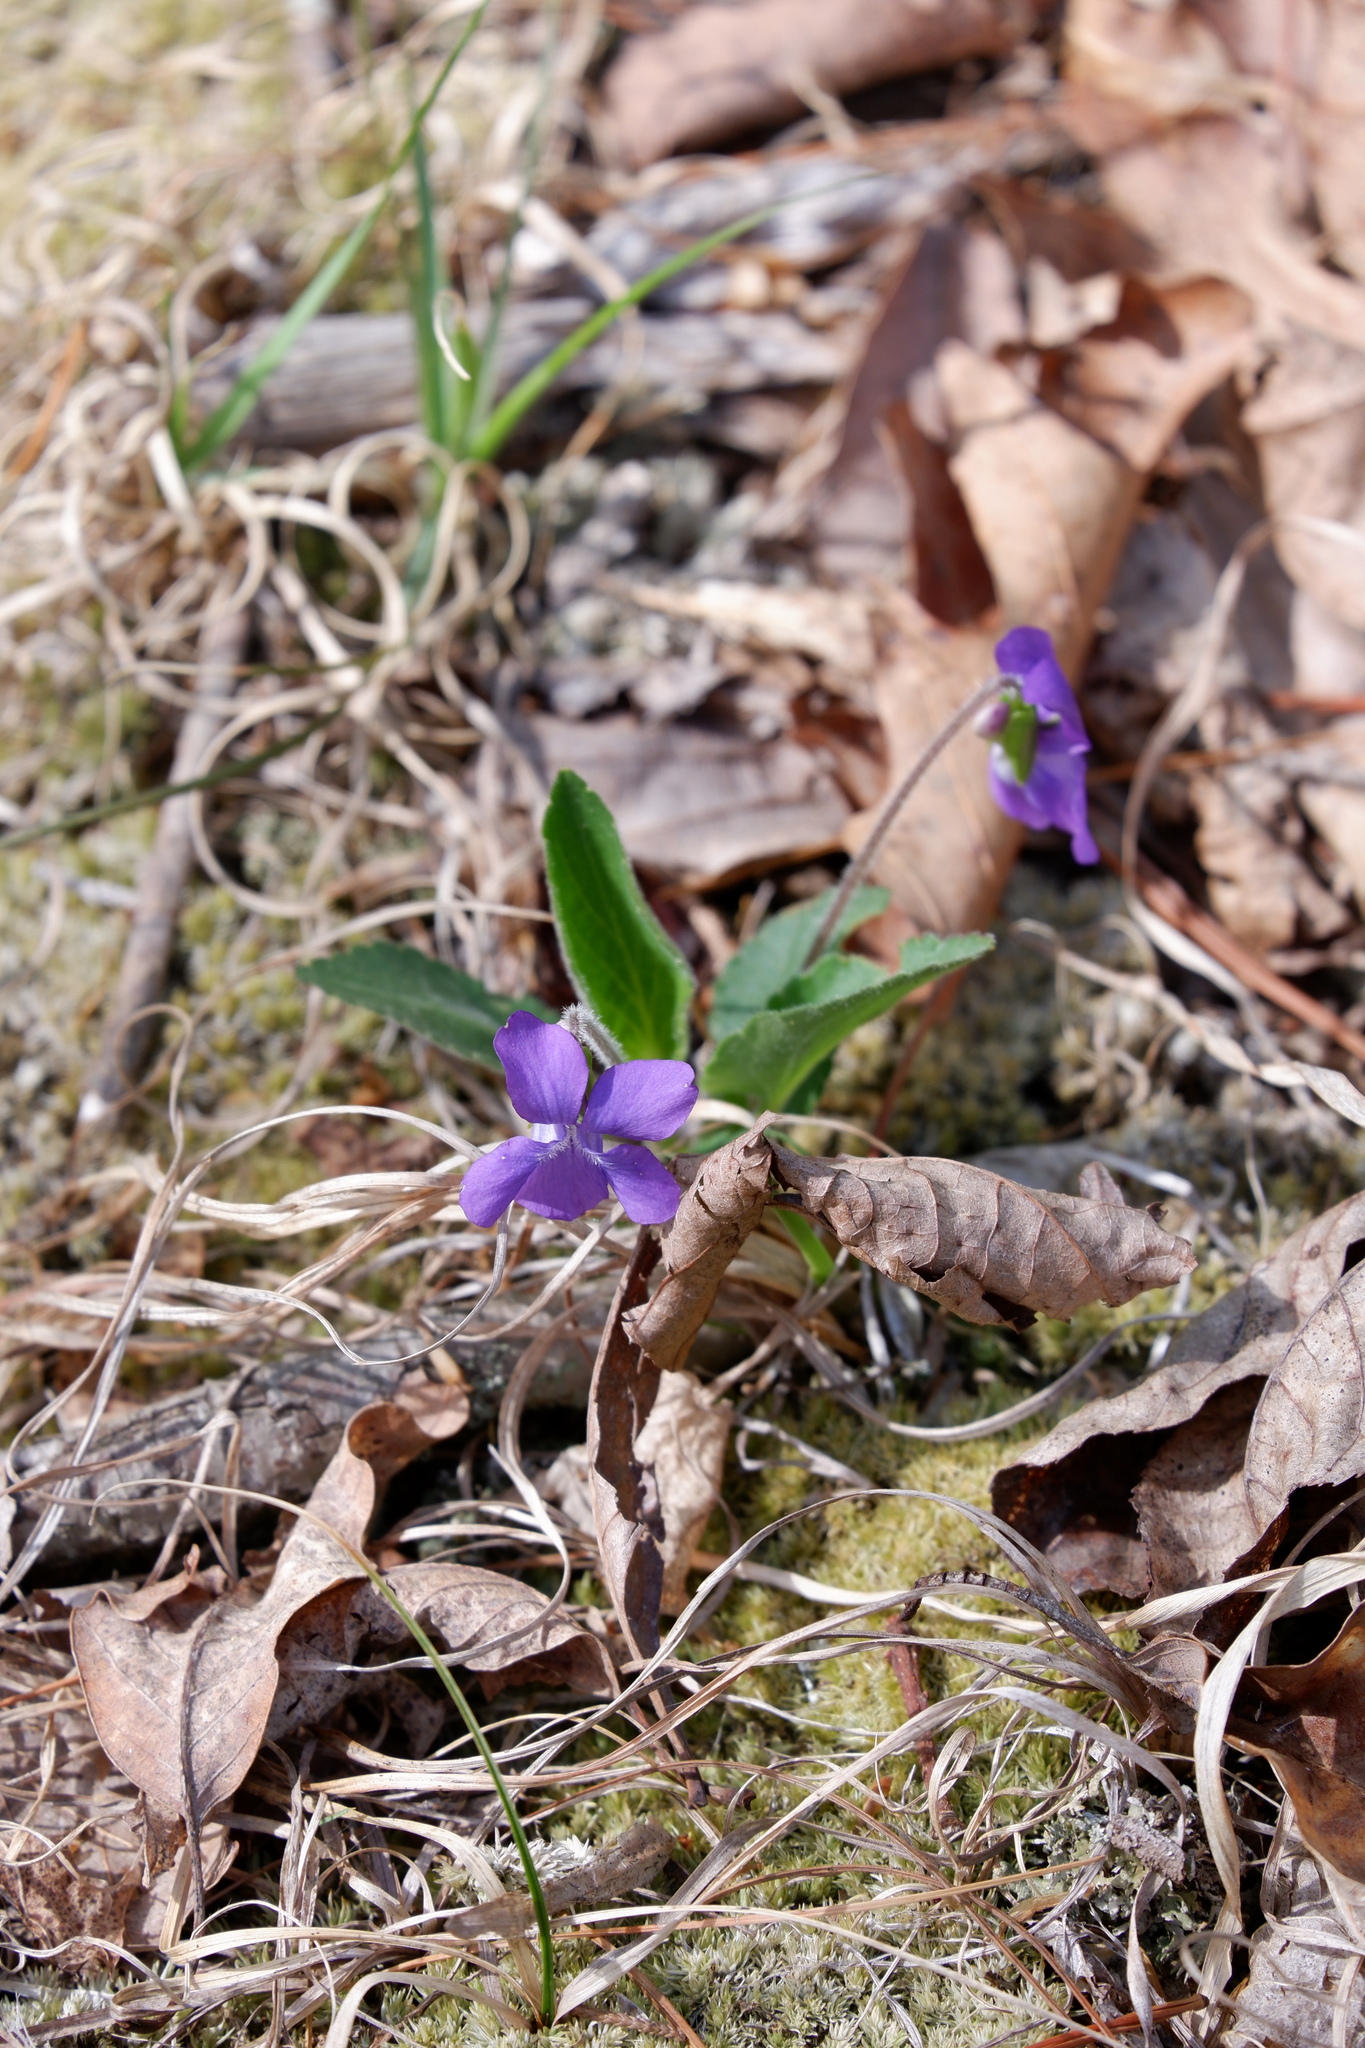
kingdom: Plantae
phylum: Tracheophyta
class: Magnoliopsida
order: Malpighiales
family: Violaceae
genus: Viola
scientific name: Viola fimbriatula
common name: Sand violet
